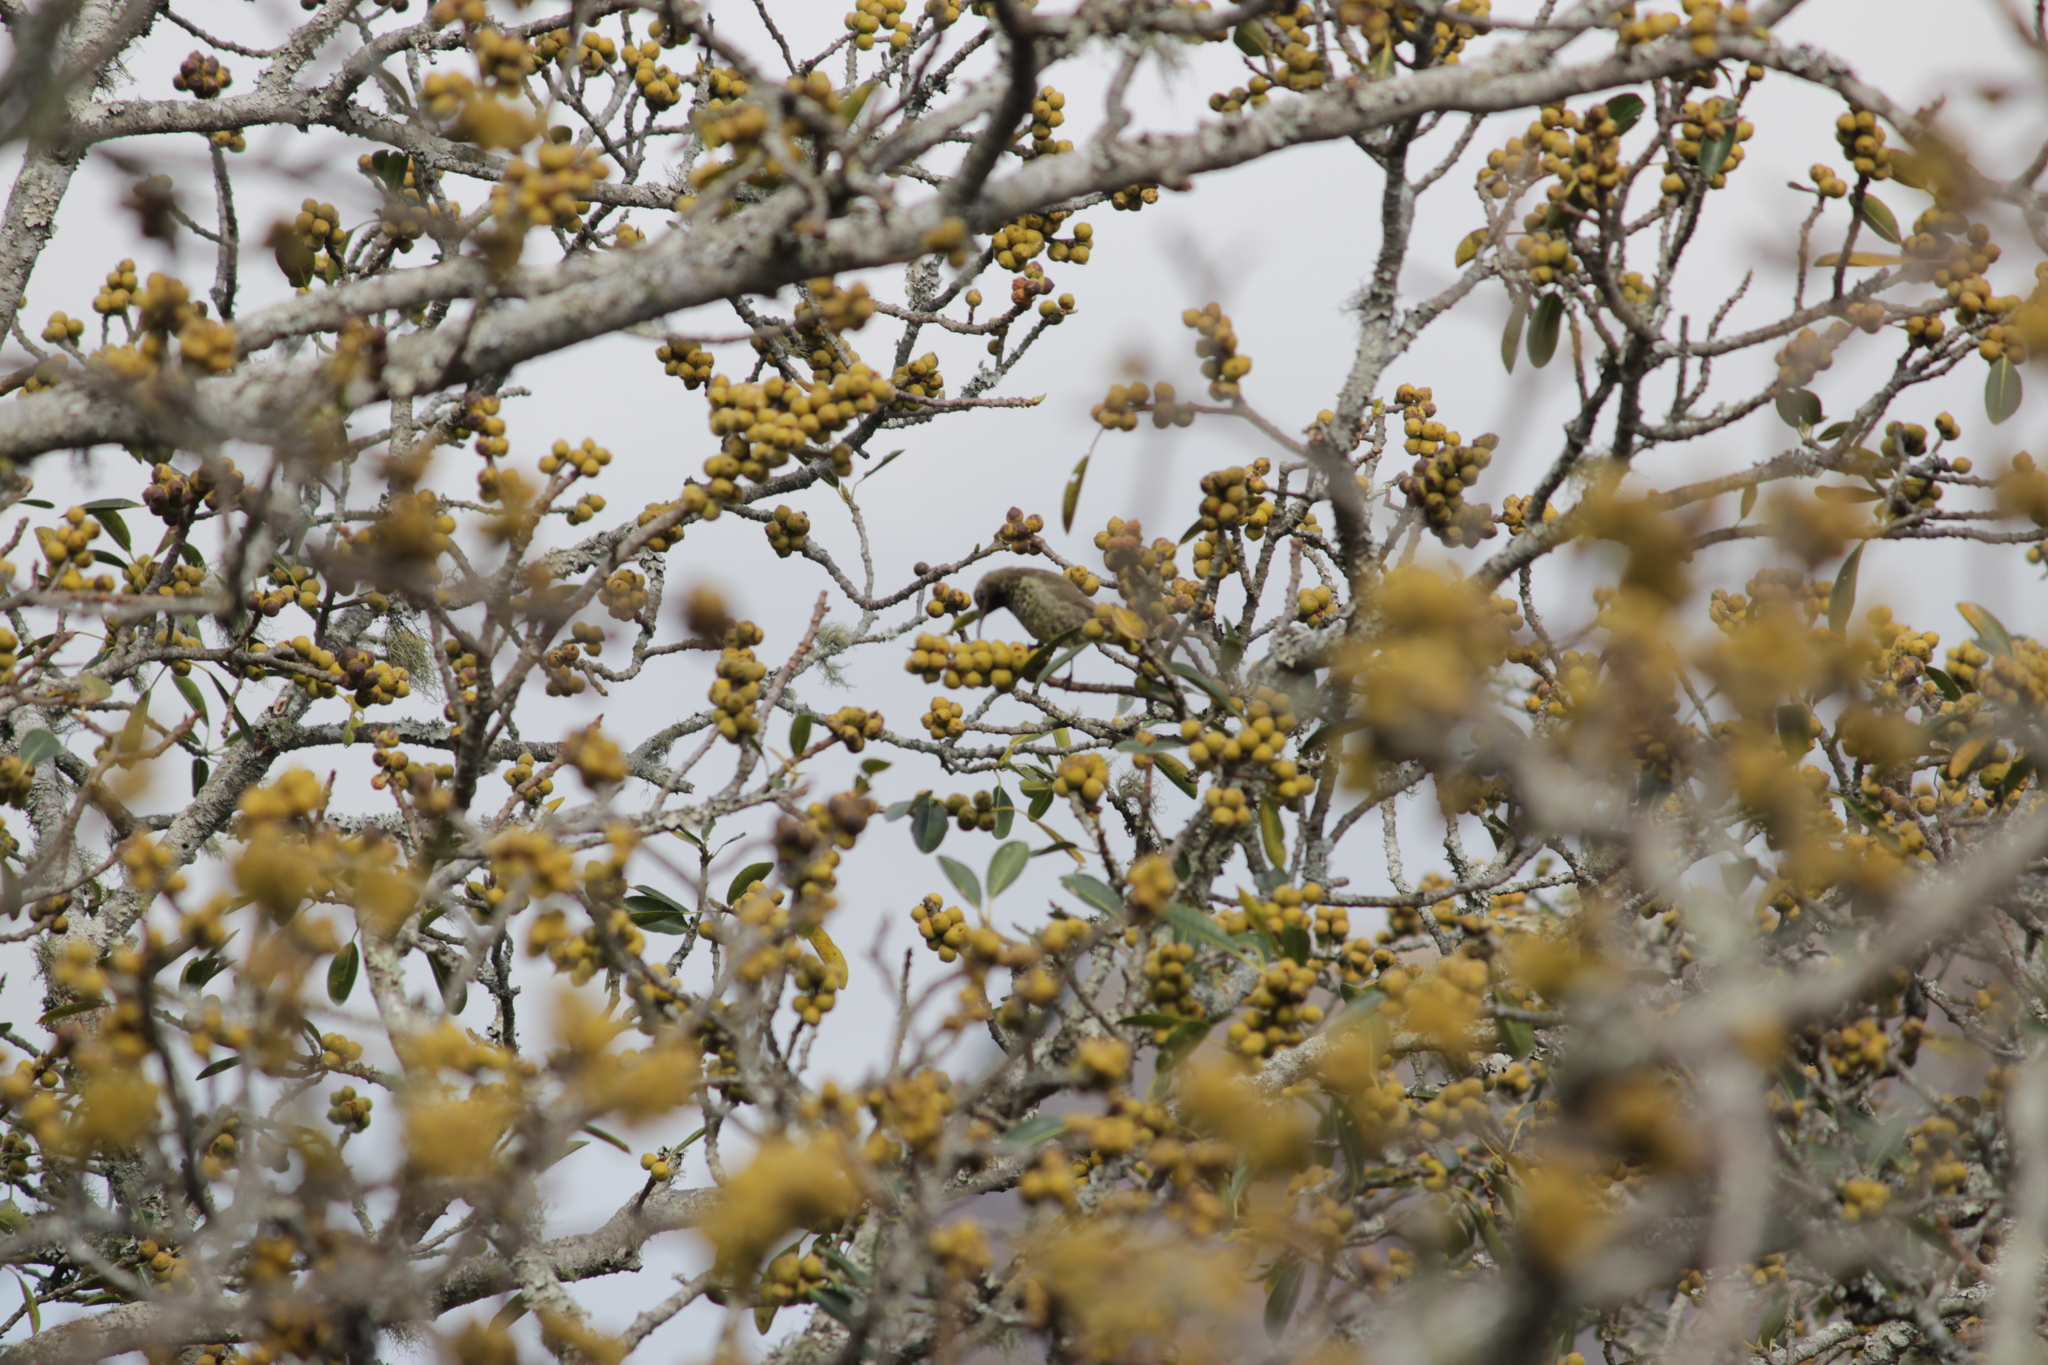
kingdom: Animalia
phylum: Chordata
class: Aves
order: Passeriformes
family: Nectariniidae
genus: Chalcomitra
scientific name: Chalcomitra senegalensis
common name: Scarlet-chested sunbird
